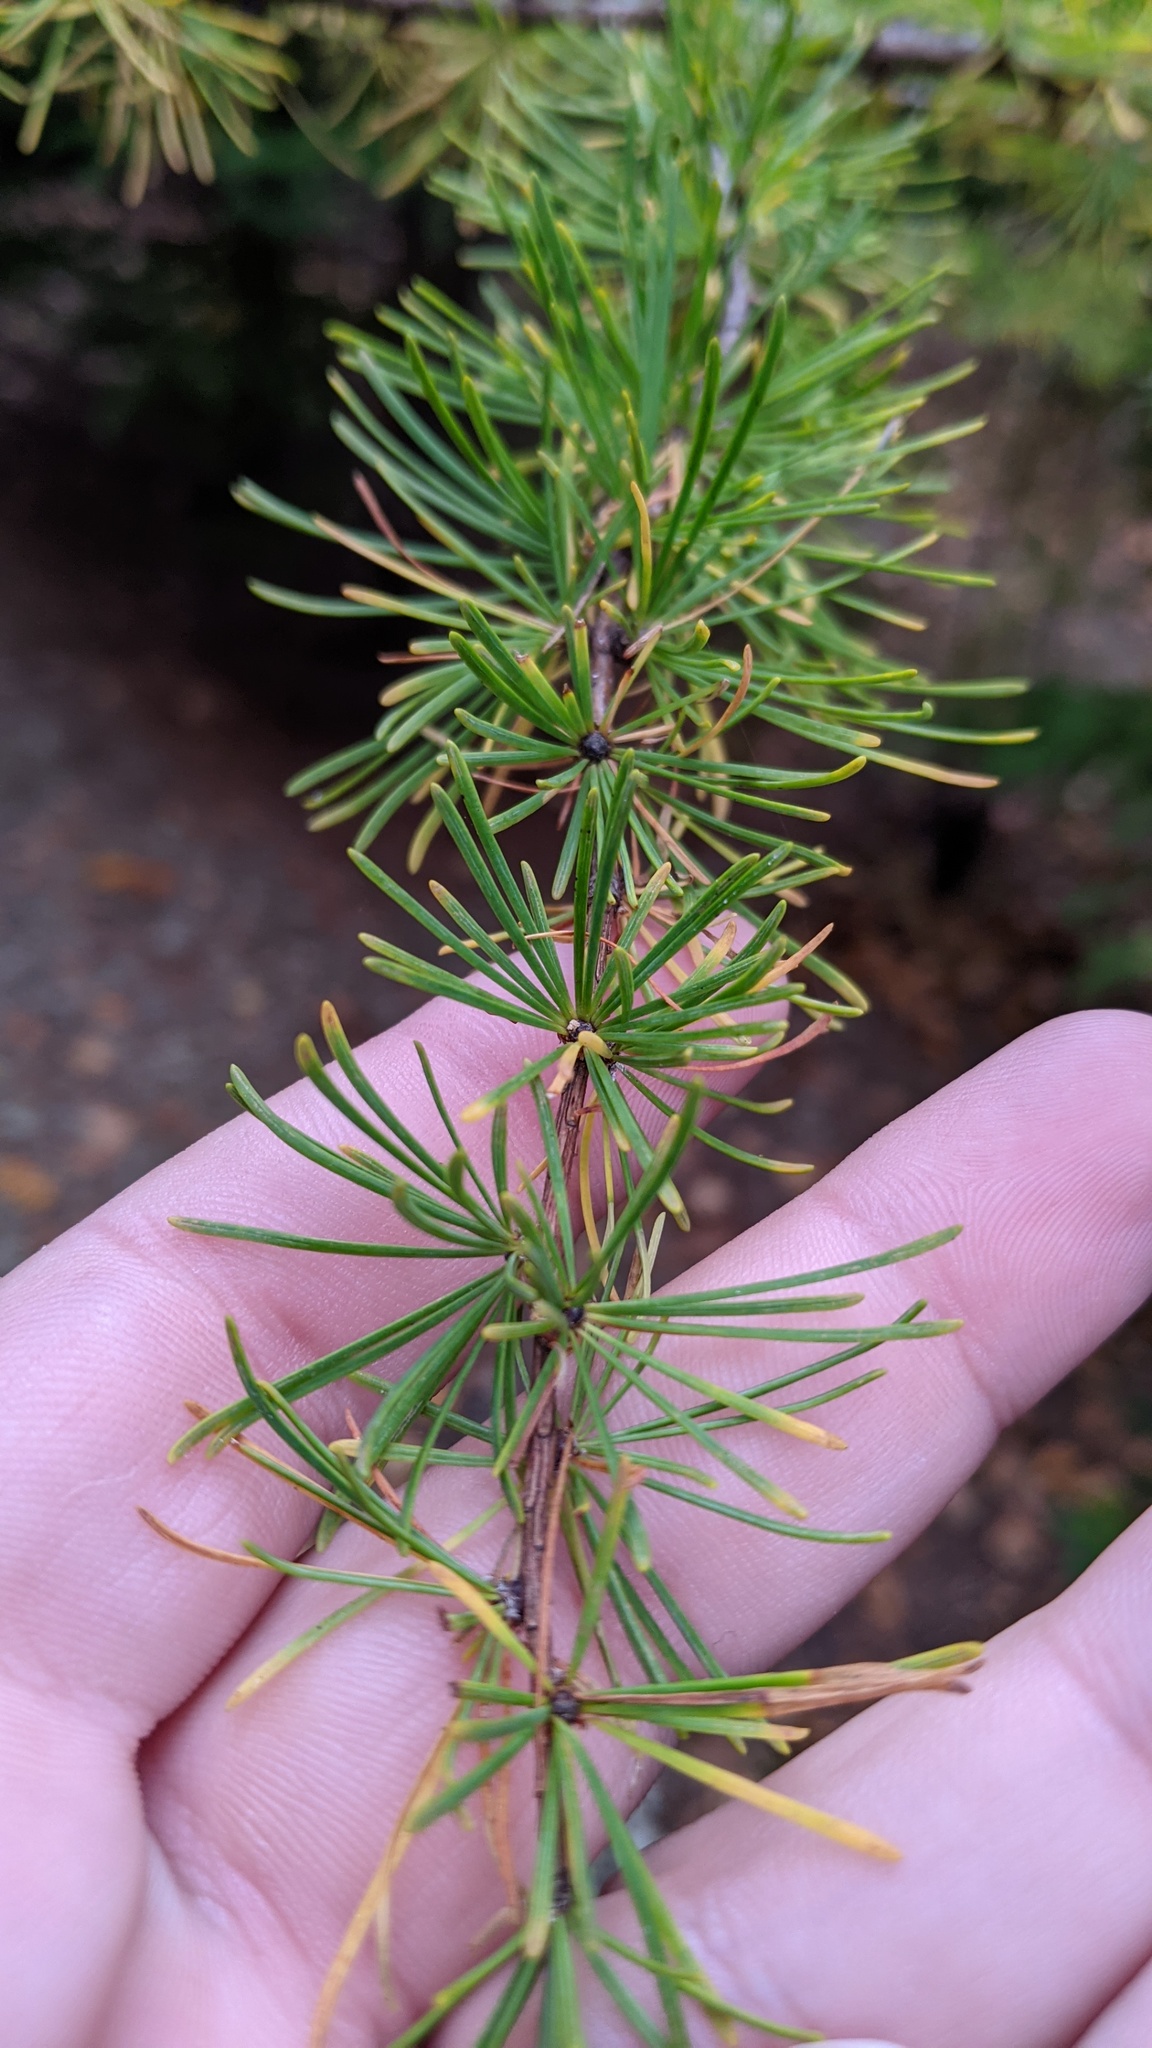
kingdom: Plantae
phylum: Tracheophyta
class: Pinopsida
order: Pinales
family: Pinaceae
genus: Larix
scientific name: Larix laricina
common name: American larch
